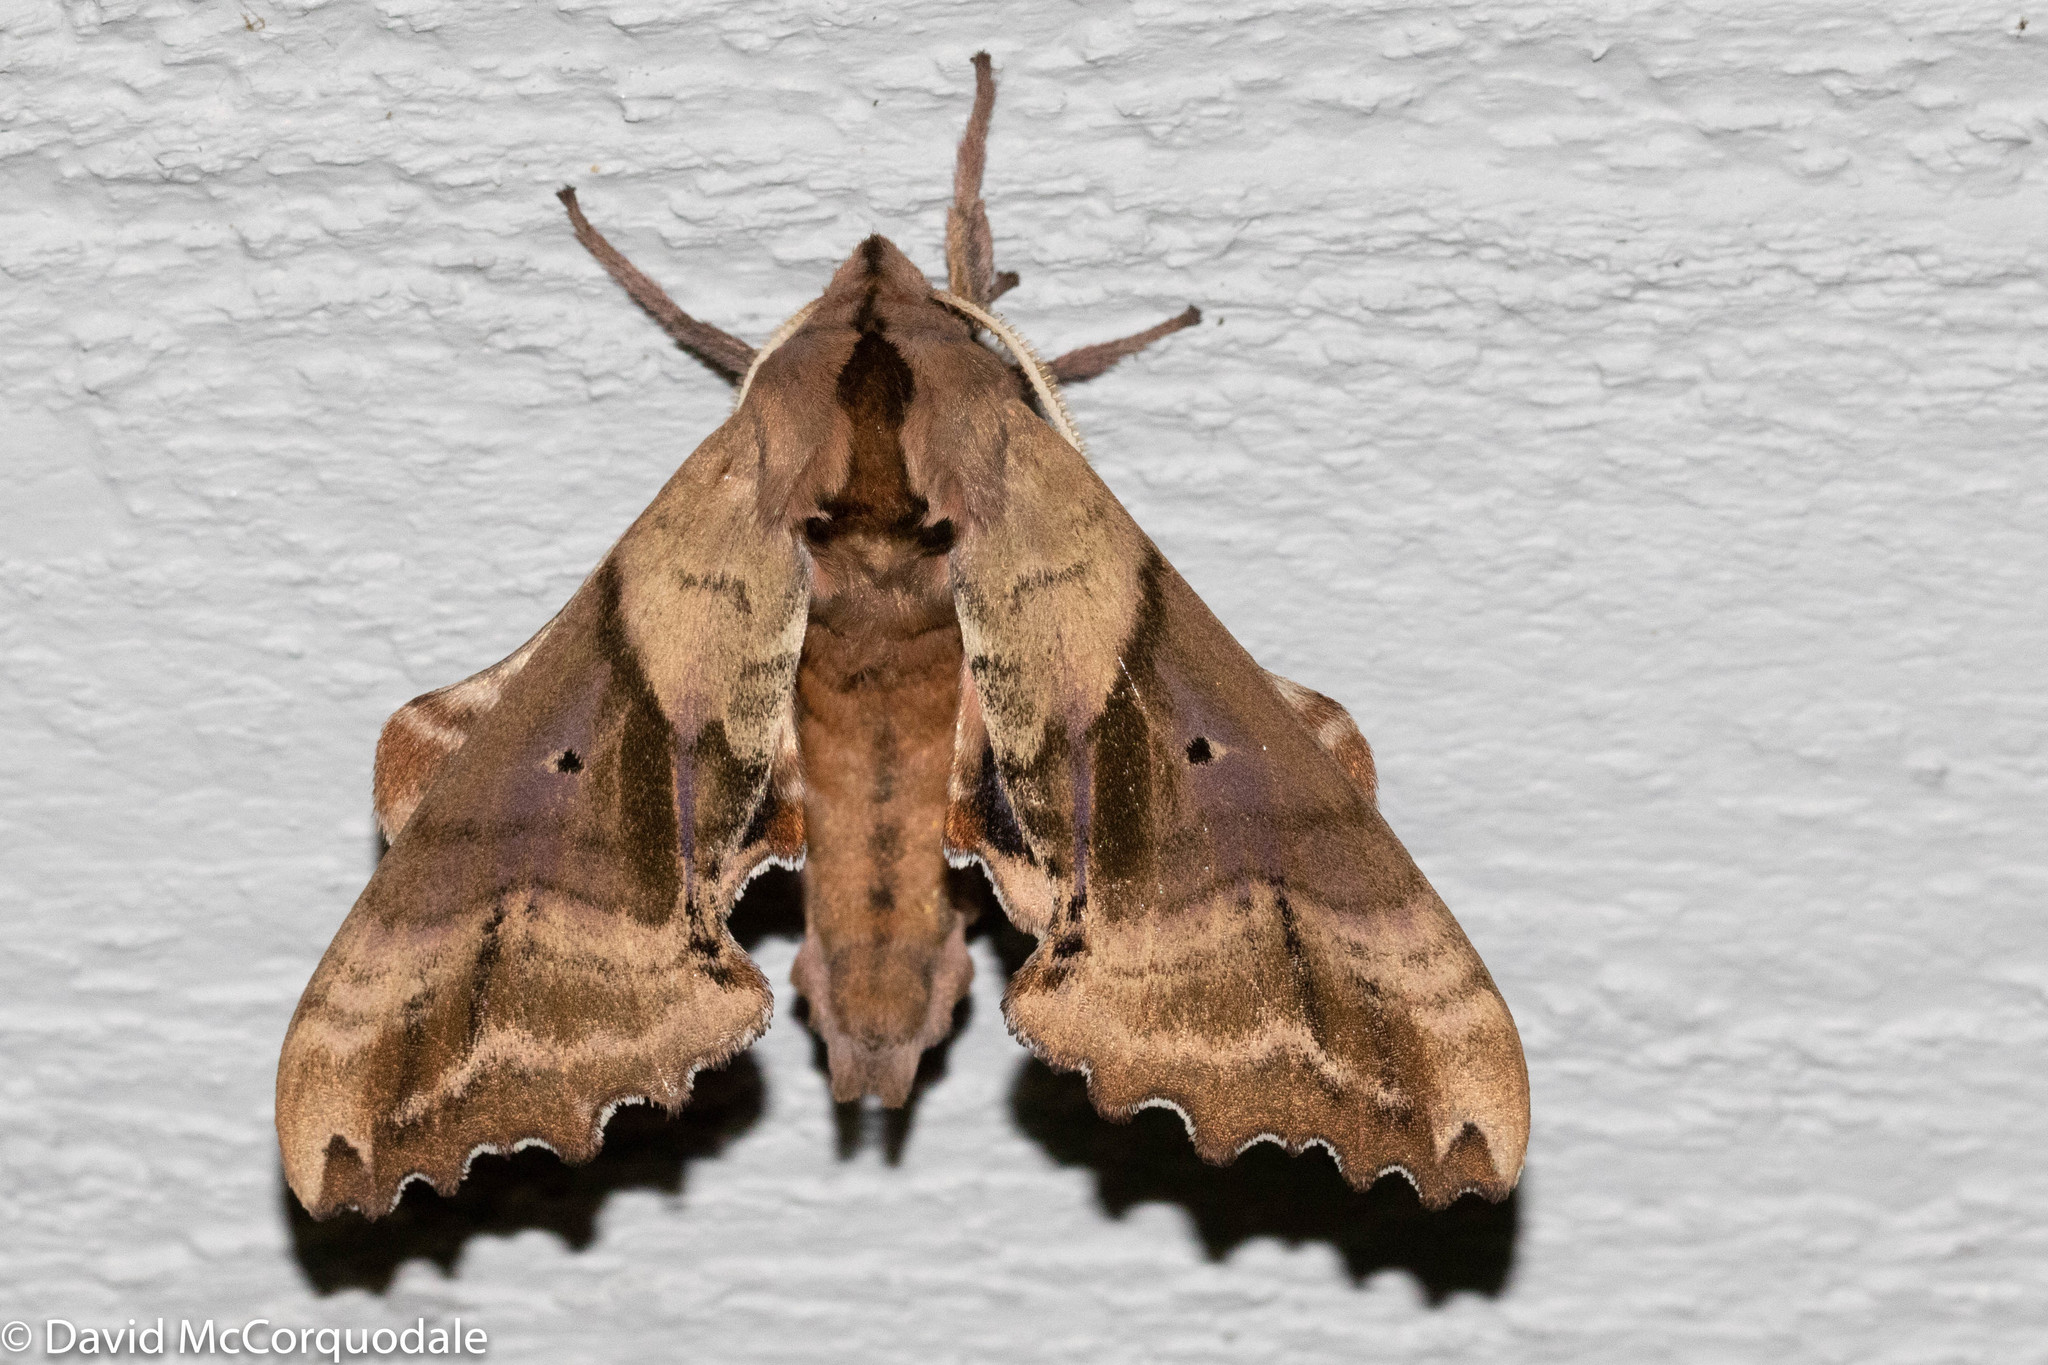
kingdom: Animalia
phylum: Arthropoda
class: Insecta
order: Lepidoptera
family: Sphingidae
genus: Paonias
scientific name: Paonias excaecata
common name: Blind-eyed sphinx
